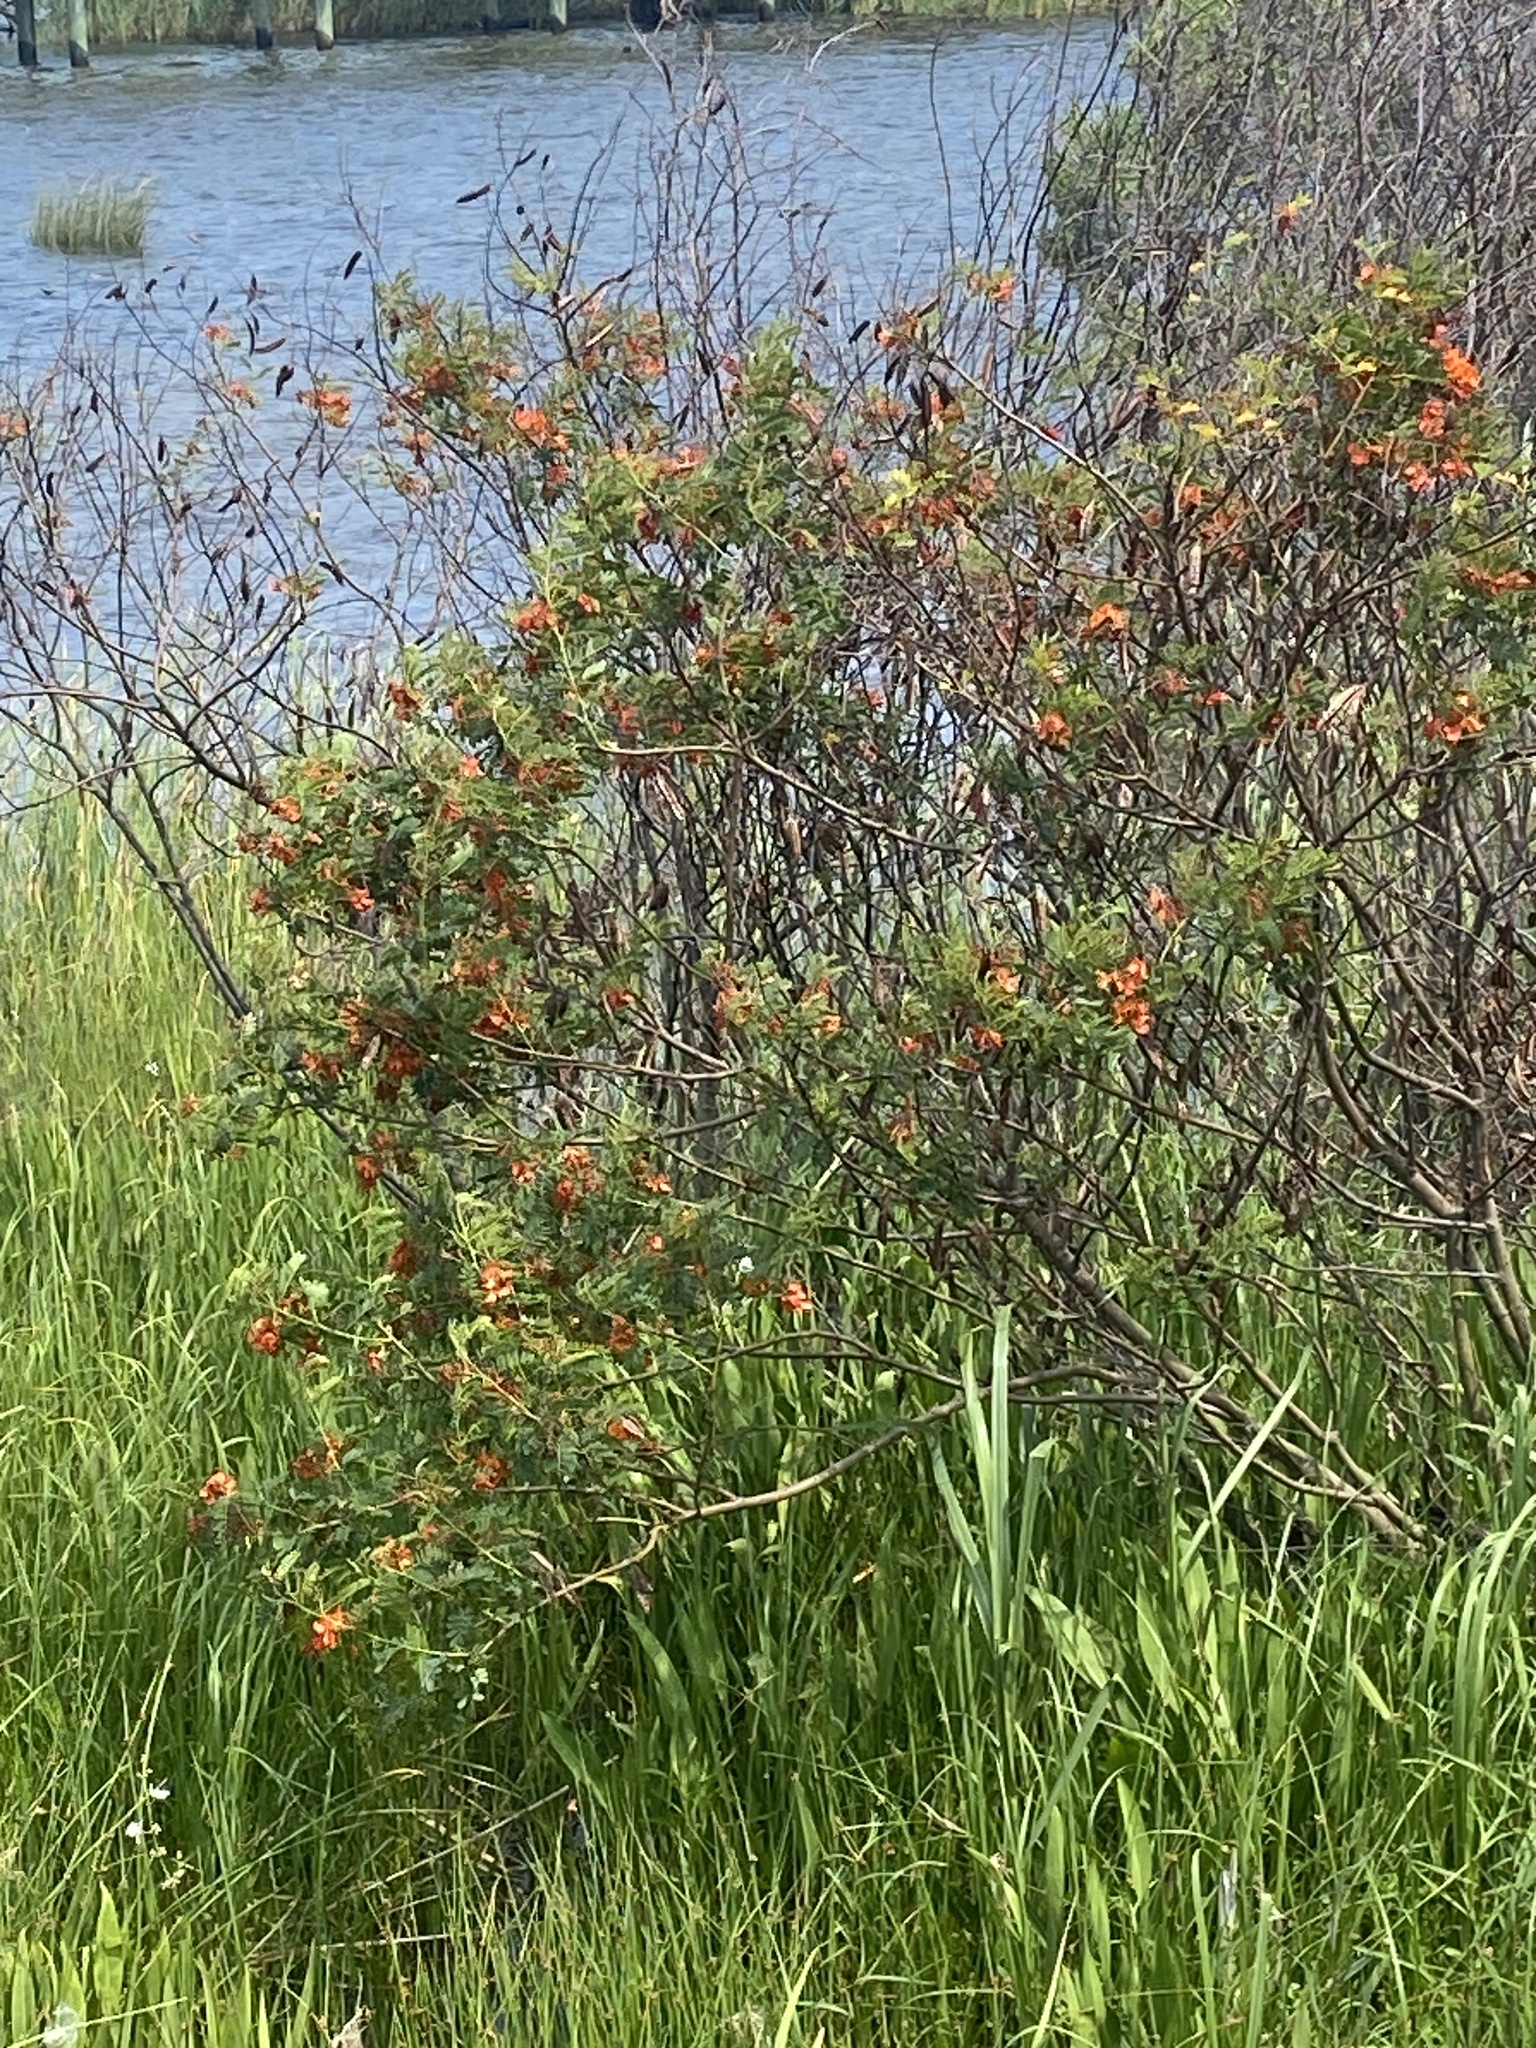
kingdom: Plantae
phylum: Tracheophyta
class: Magnoliopsida
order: Fabales
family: Fabaceae
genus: Sesbania
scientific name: Sesbania punicea
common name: Rattlebox
